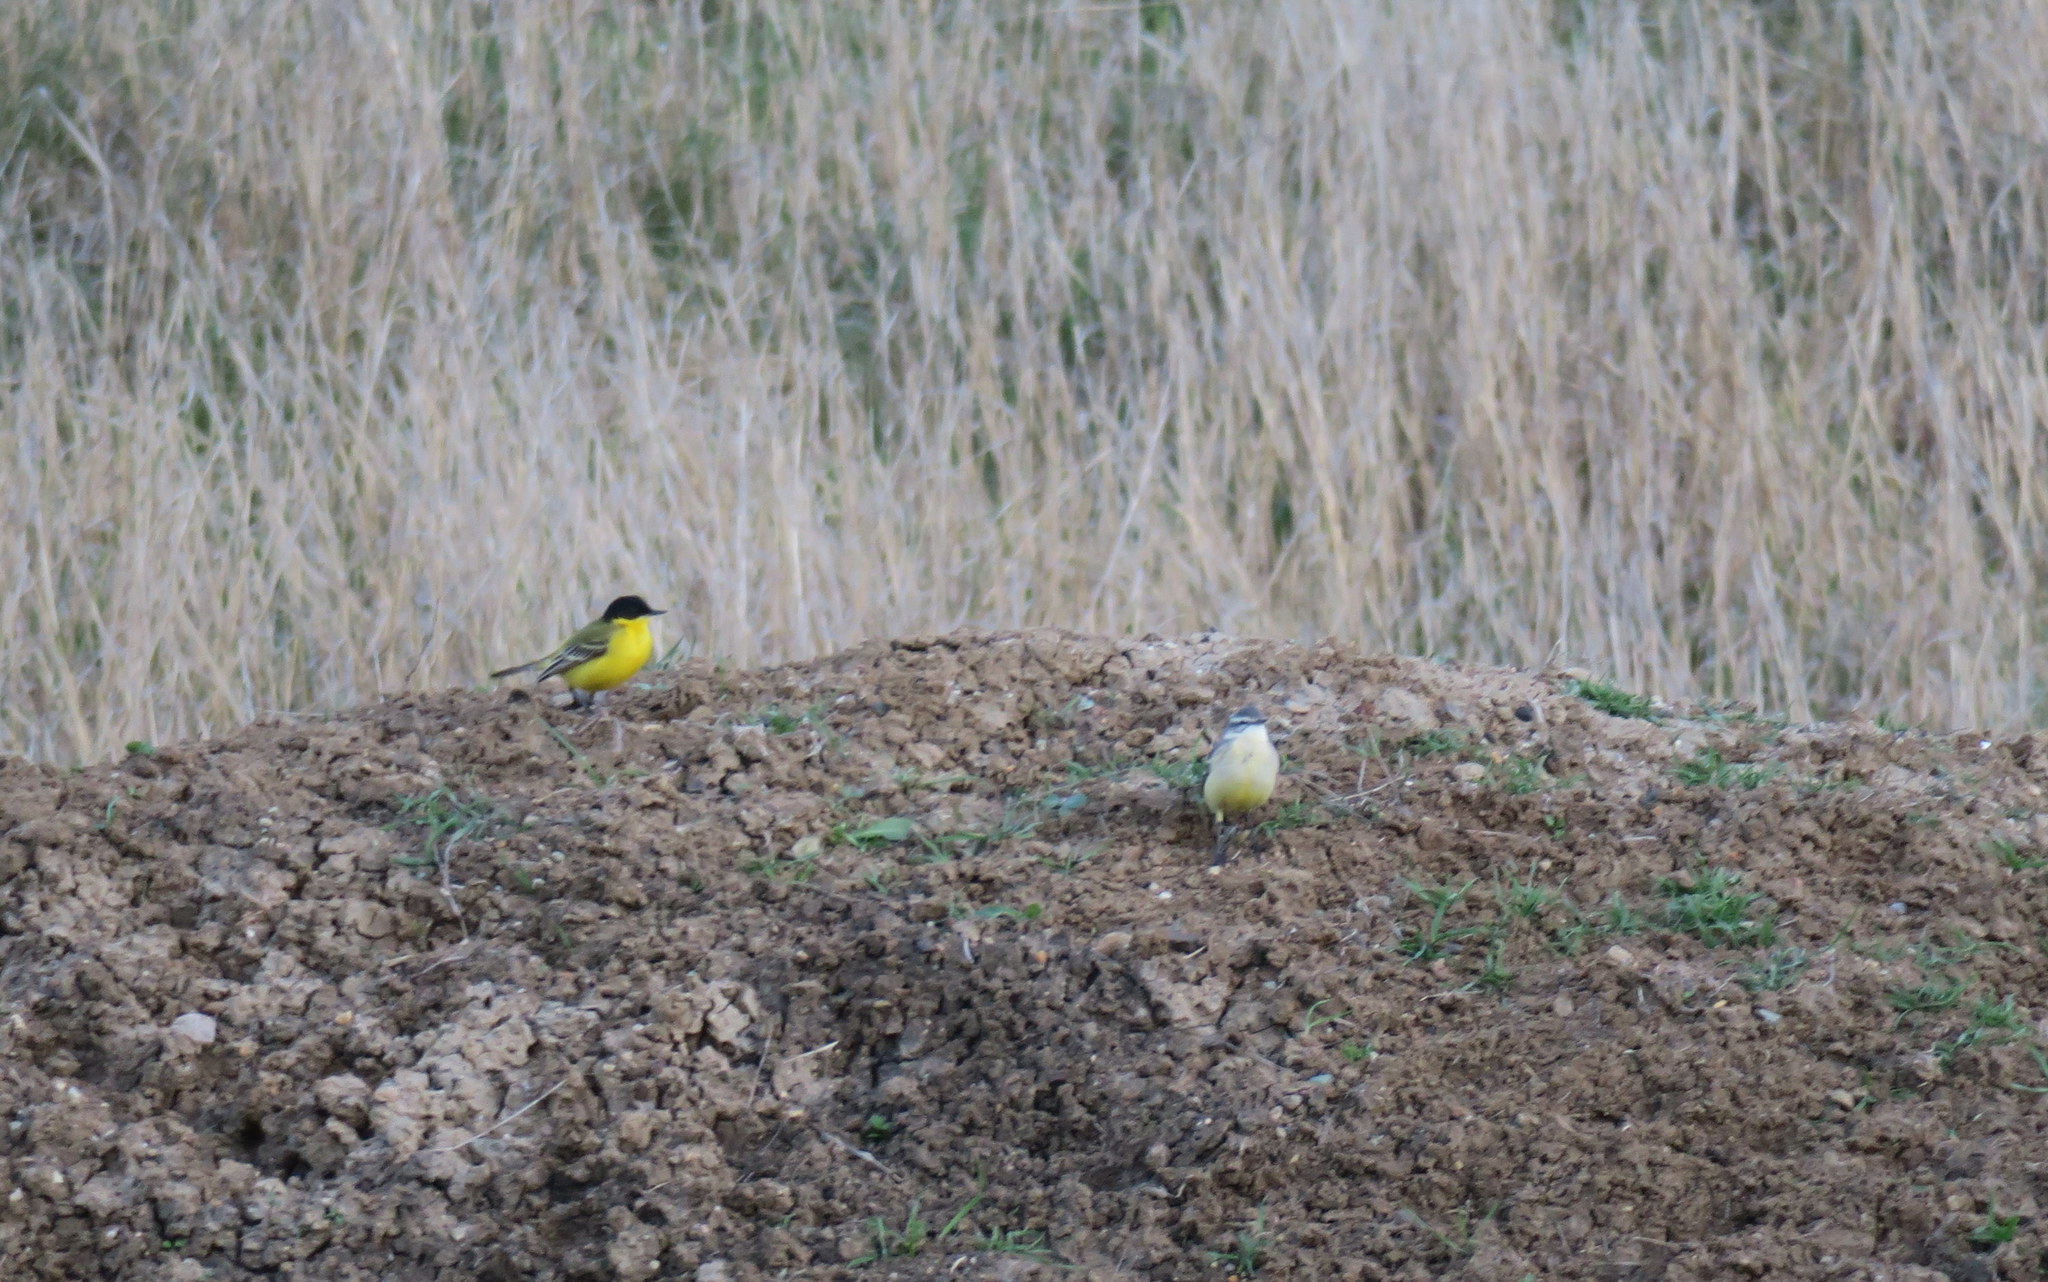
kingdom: Animalia
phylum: Chordata
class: Aves
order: Passeriformes
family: Motacillidae
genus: Motacilla
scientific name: Motacilla flava
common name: Western yellow wagtail
